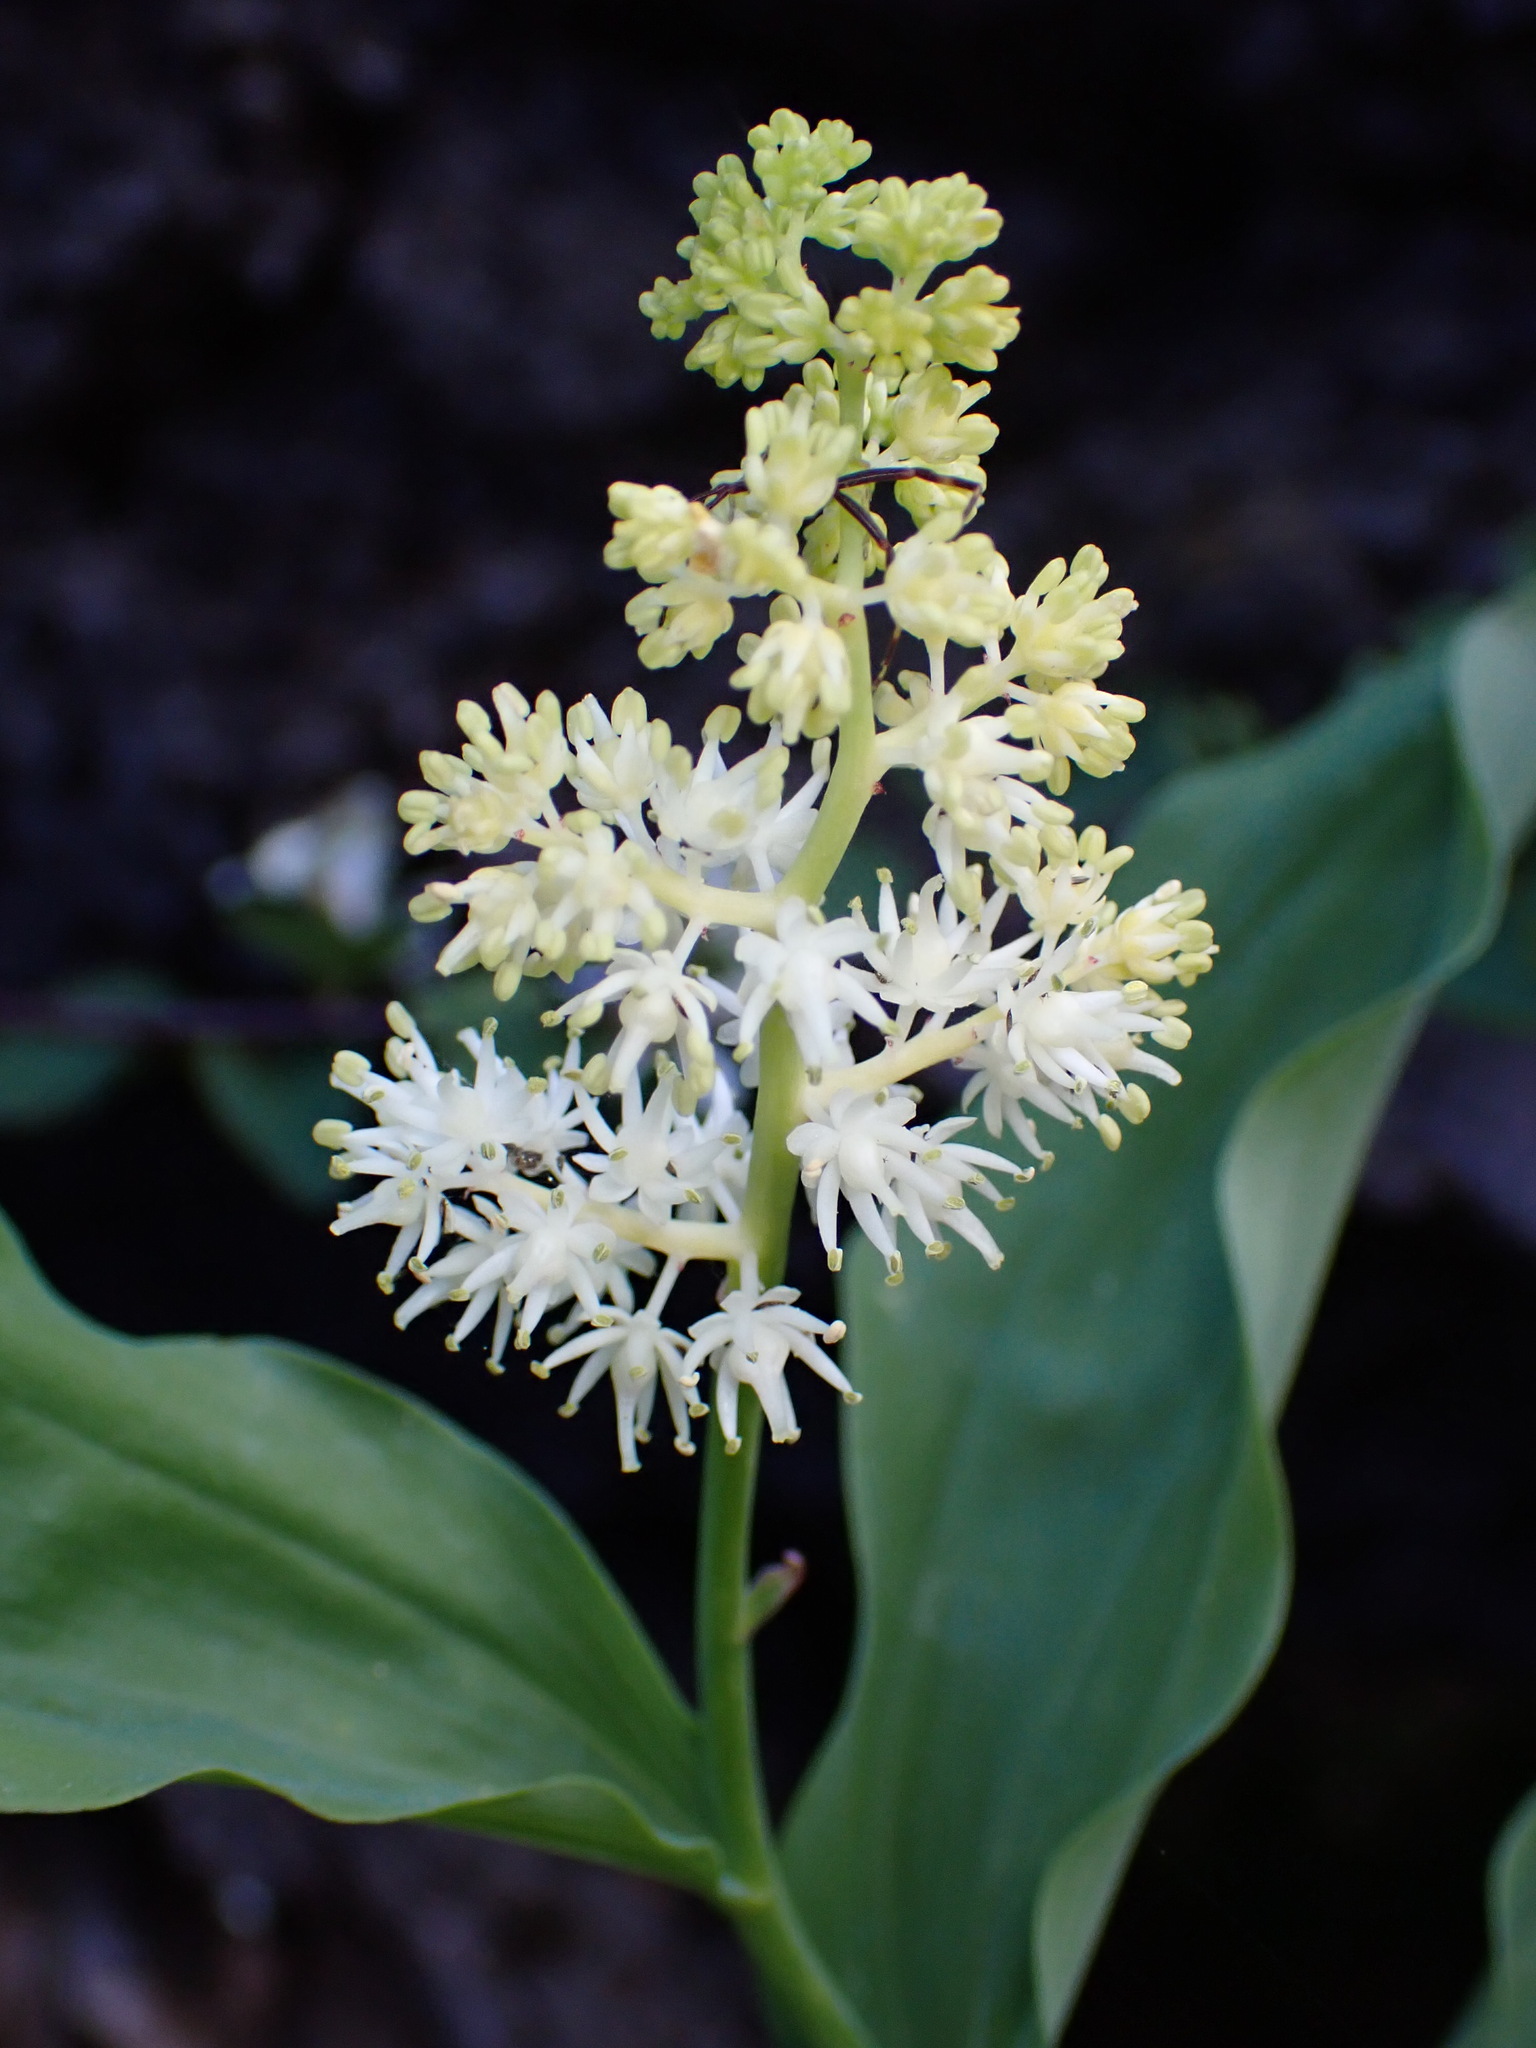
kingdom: Plantae
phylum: Tracheophyta
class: Liliopsida
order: Asparagales
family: Asparagaceae
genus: Maianthemum
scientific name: Maianthemum racemosum
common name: False spikenard
